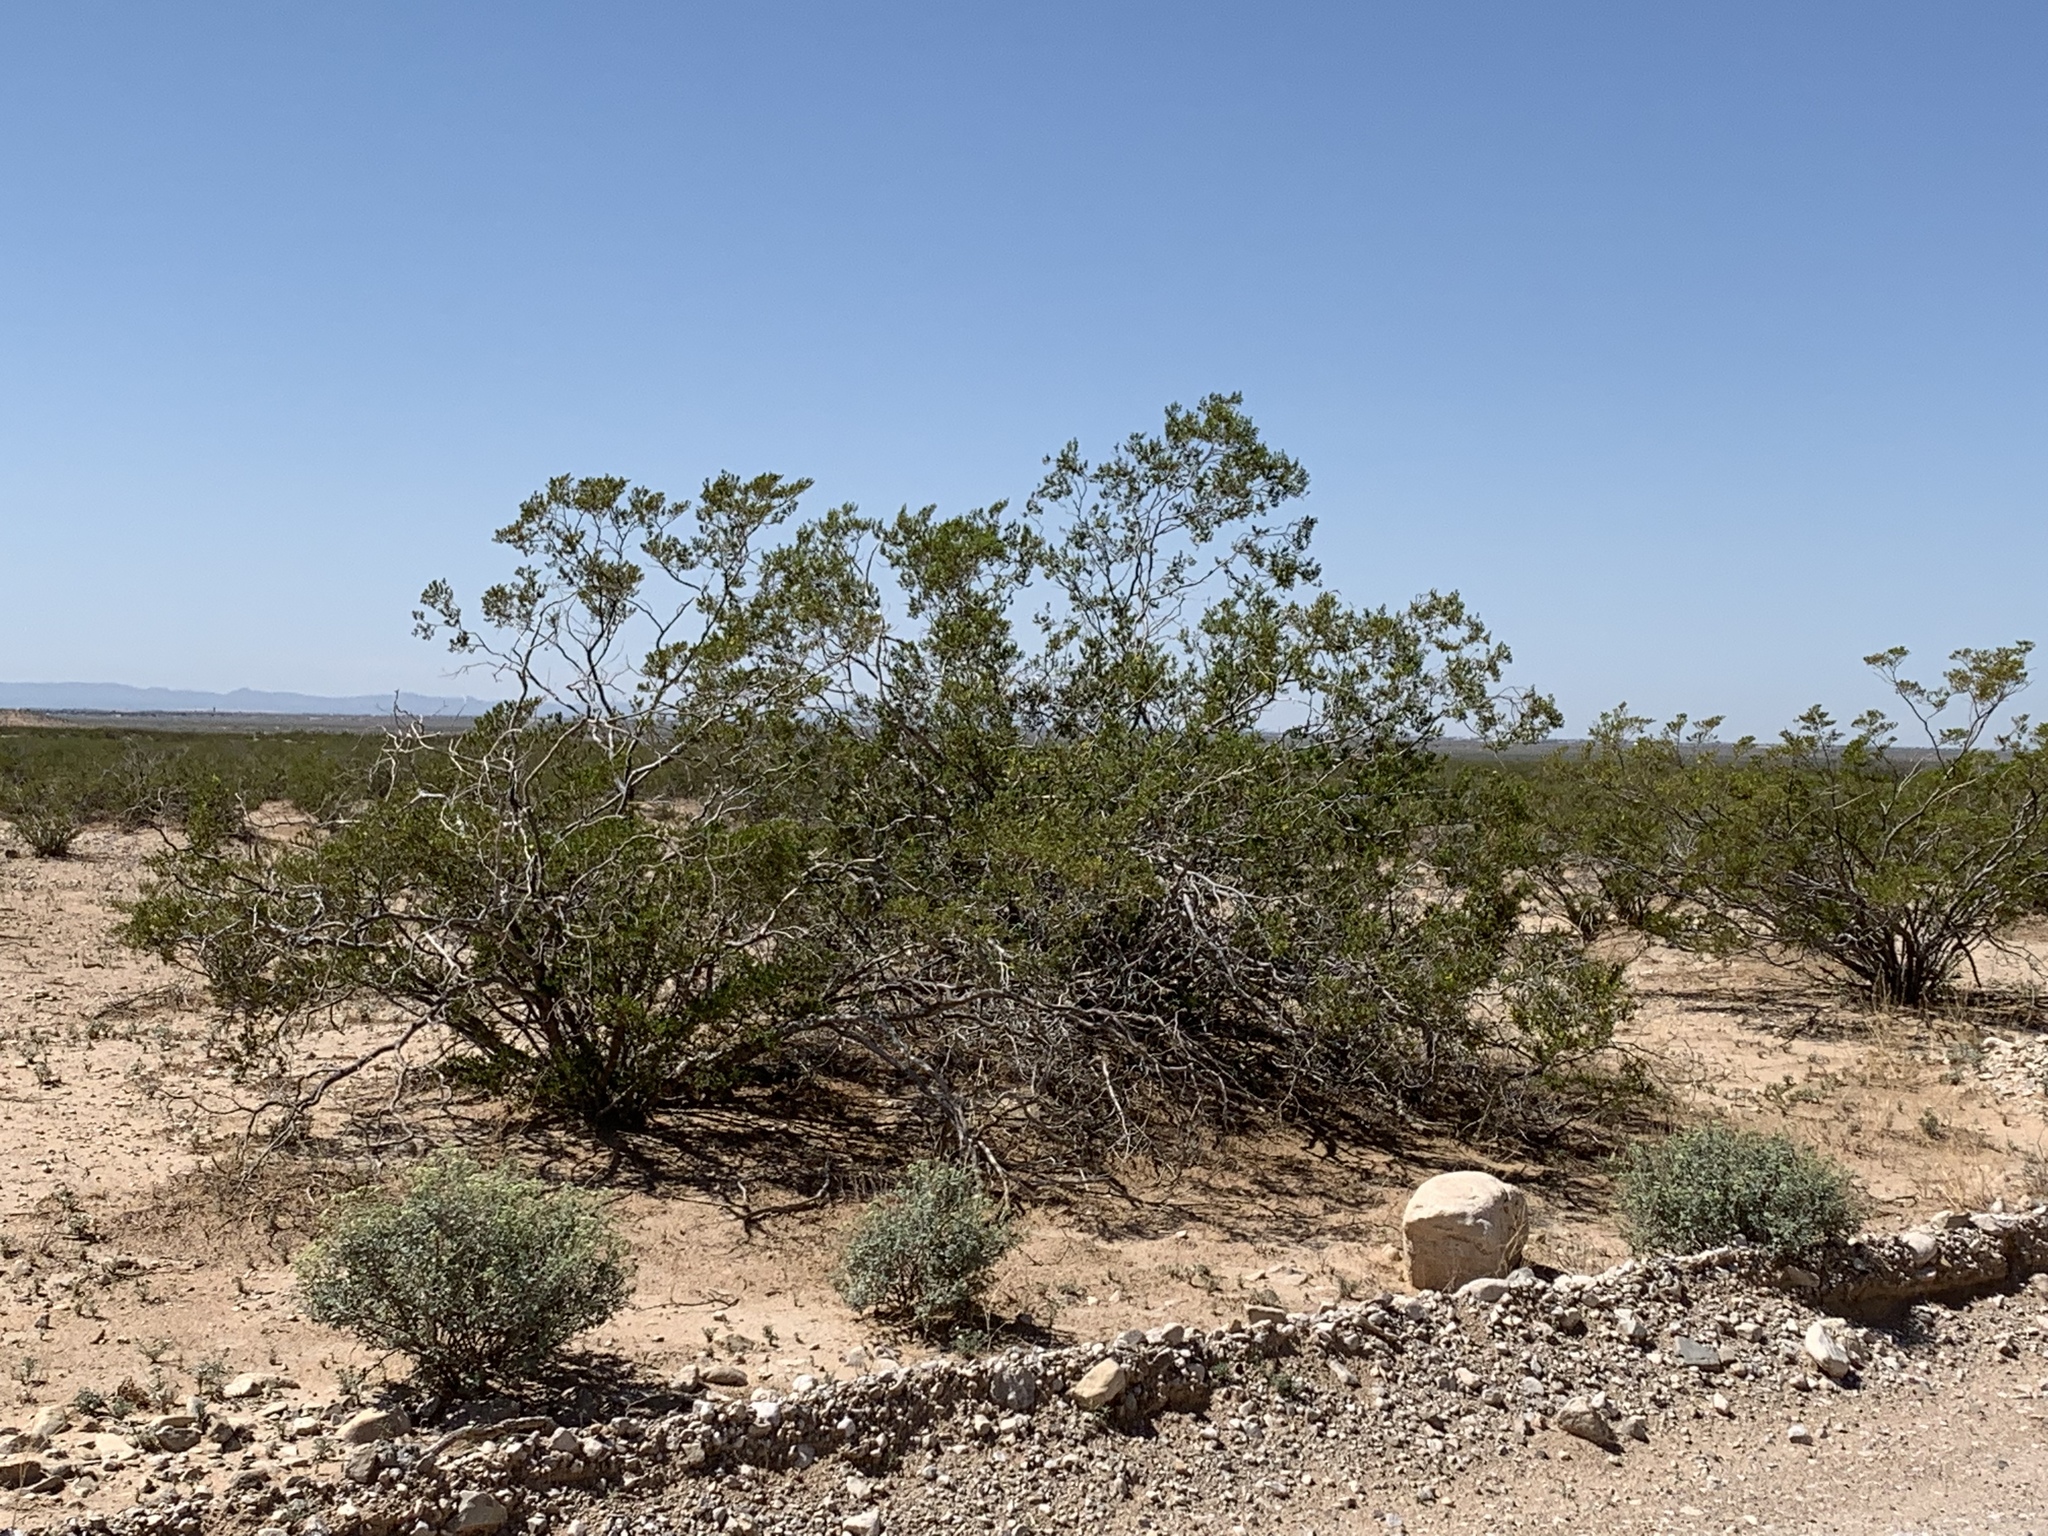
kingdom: Plantae
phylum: Tracheophyta
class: Magnoliopsida
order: Zygophyllales
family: Zygophyllaceae
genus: Larrea
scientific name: Larrea tridentata
